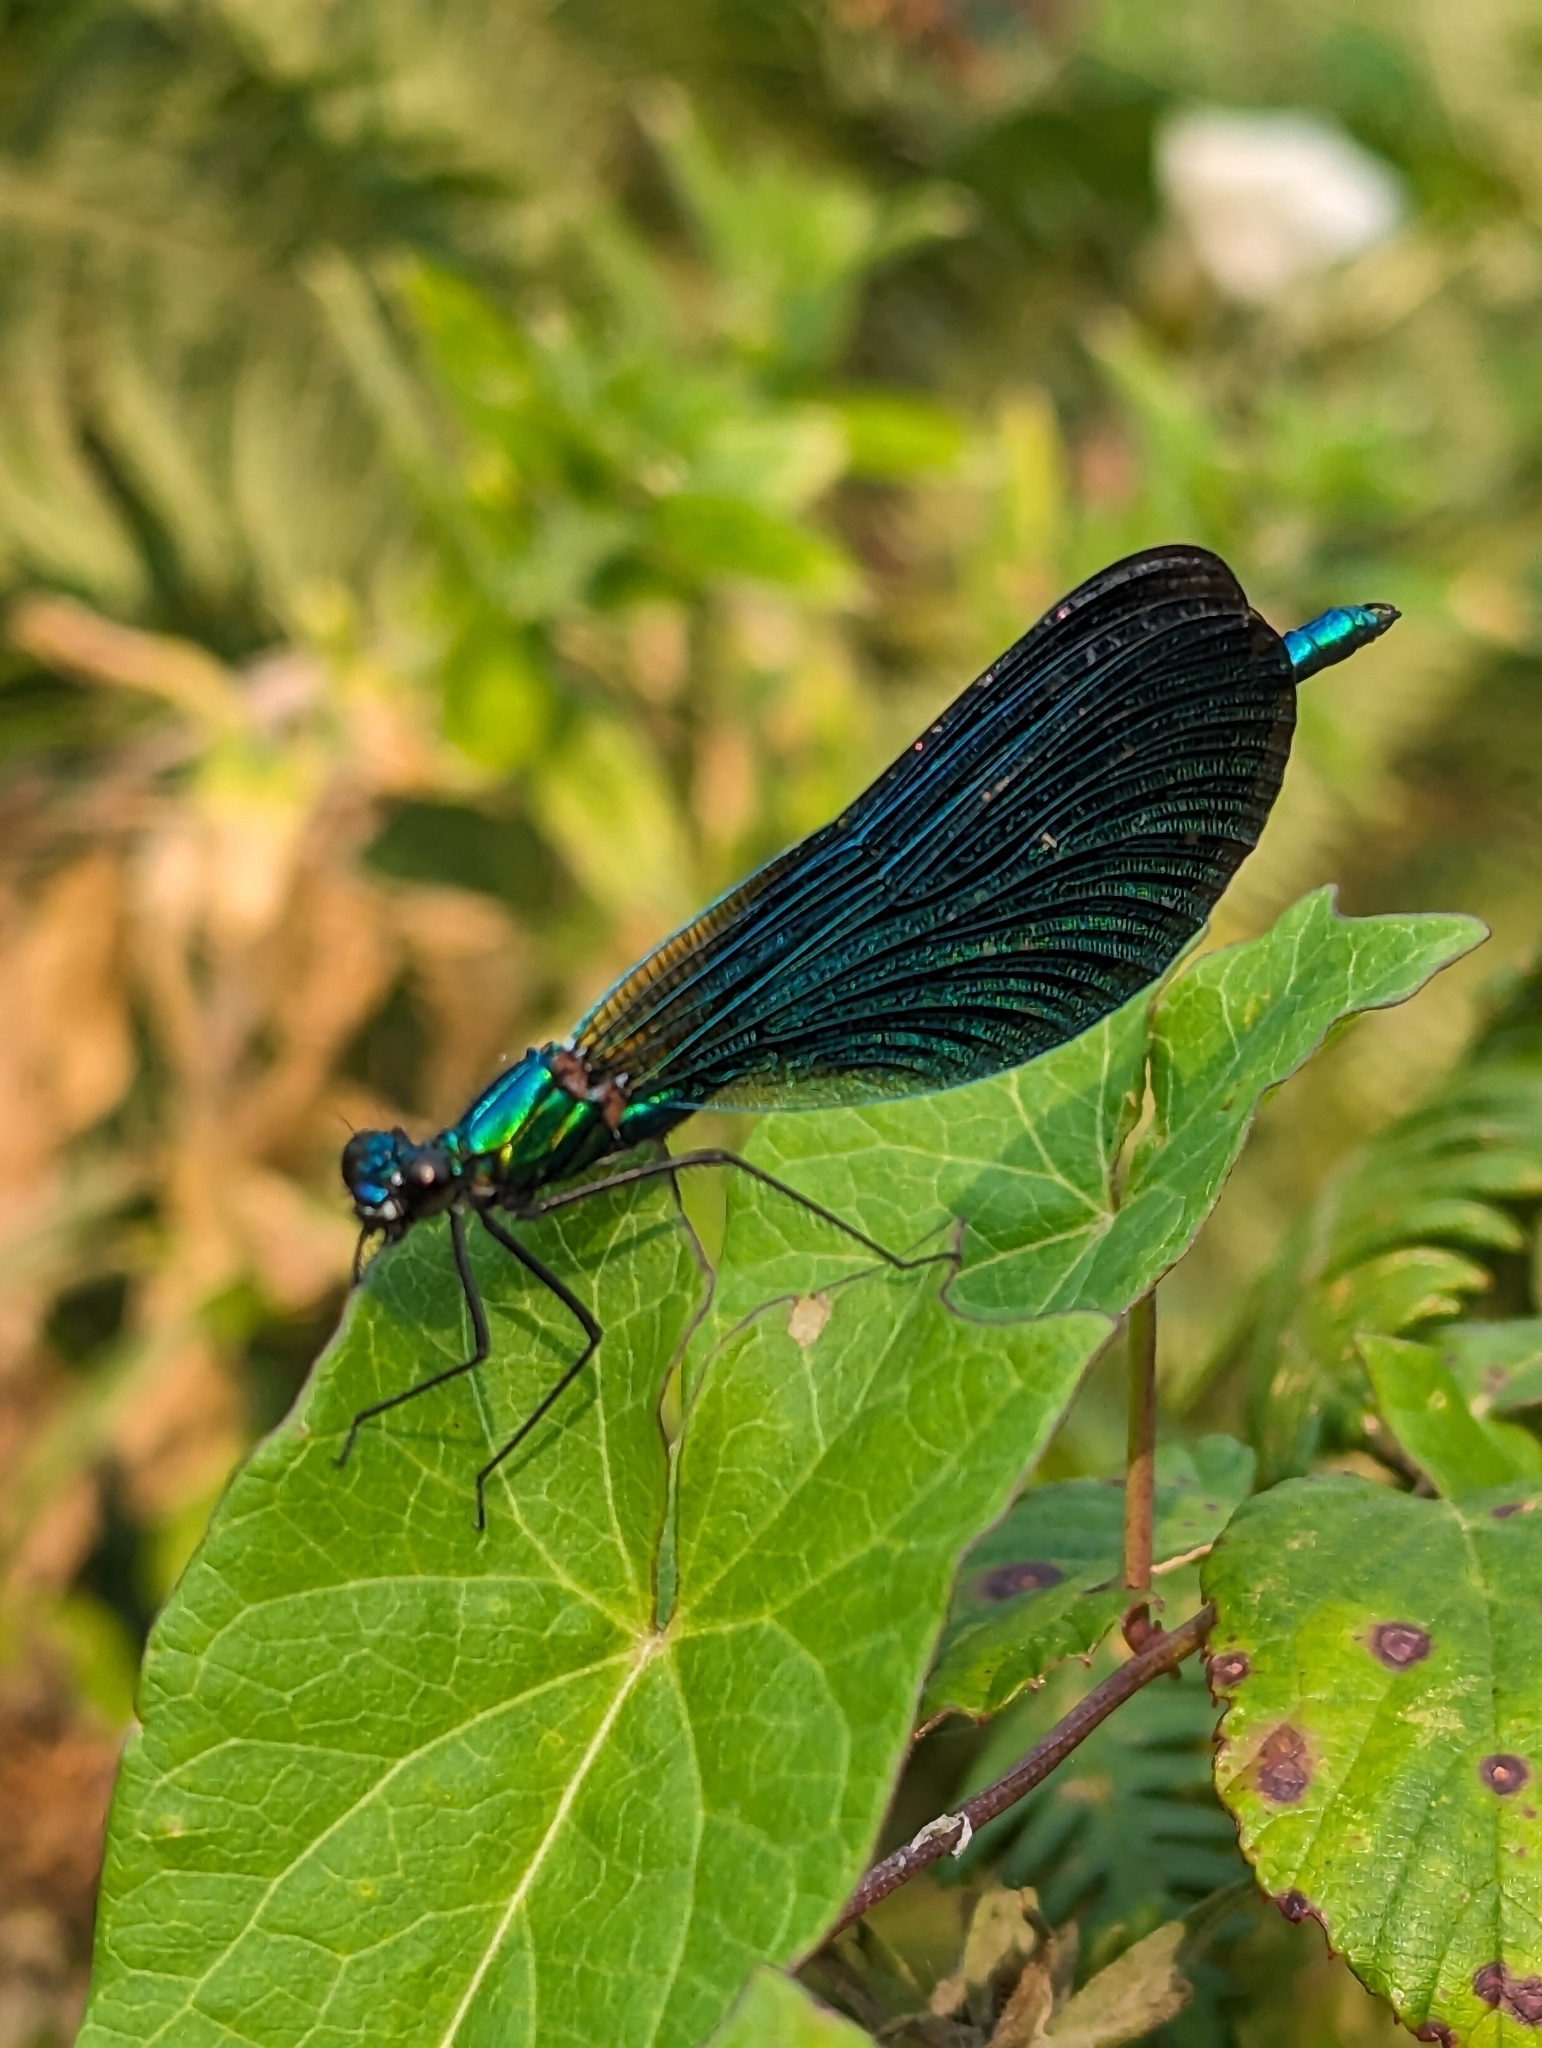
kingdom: Animalia
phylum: Arthropoda
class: Insecta
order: Odonata
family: Calopterygidae
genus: Calopteryx
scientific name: Calopteryx virgo
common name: Beautiful demoiselle
